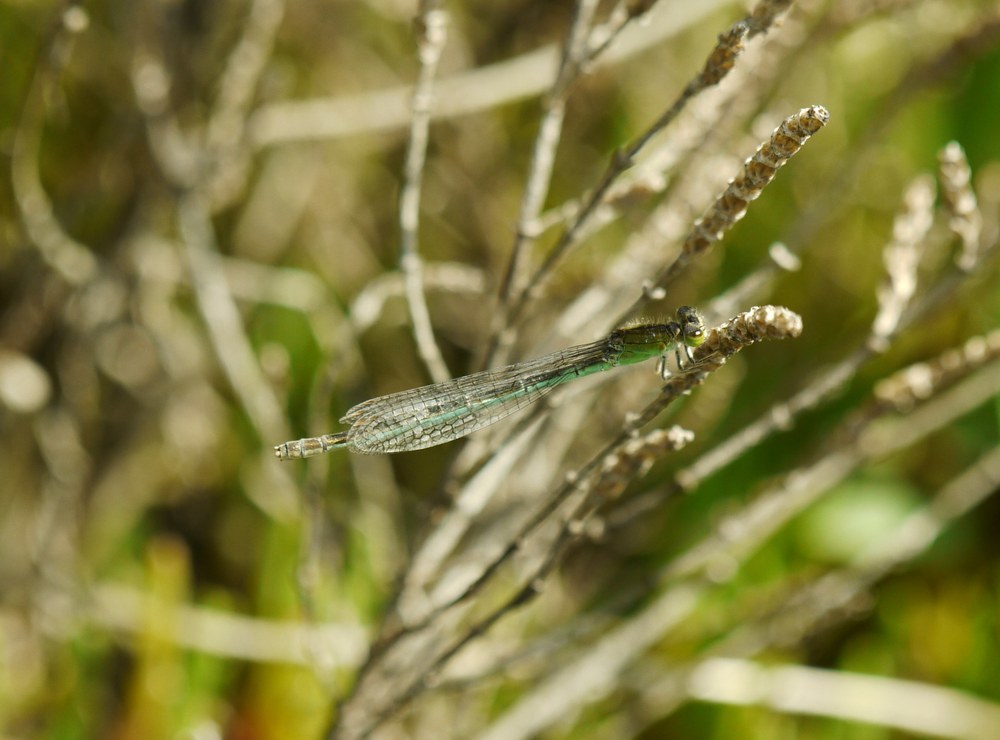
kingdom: Animalia
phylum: Arthropoda
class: Insecta
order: Odonata
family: Coenagrionidae
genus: Ischnura
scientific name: Ischnura pumilio
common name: Scarce blue-tailed damselfly
